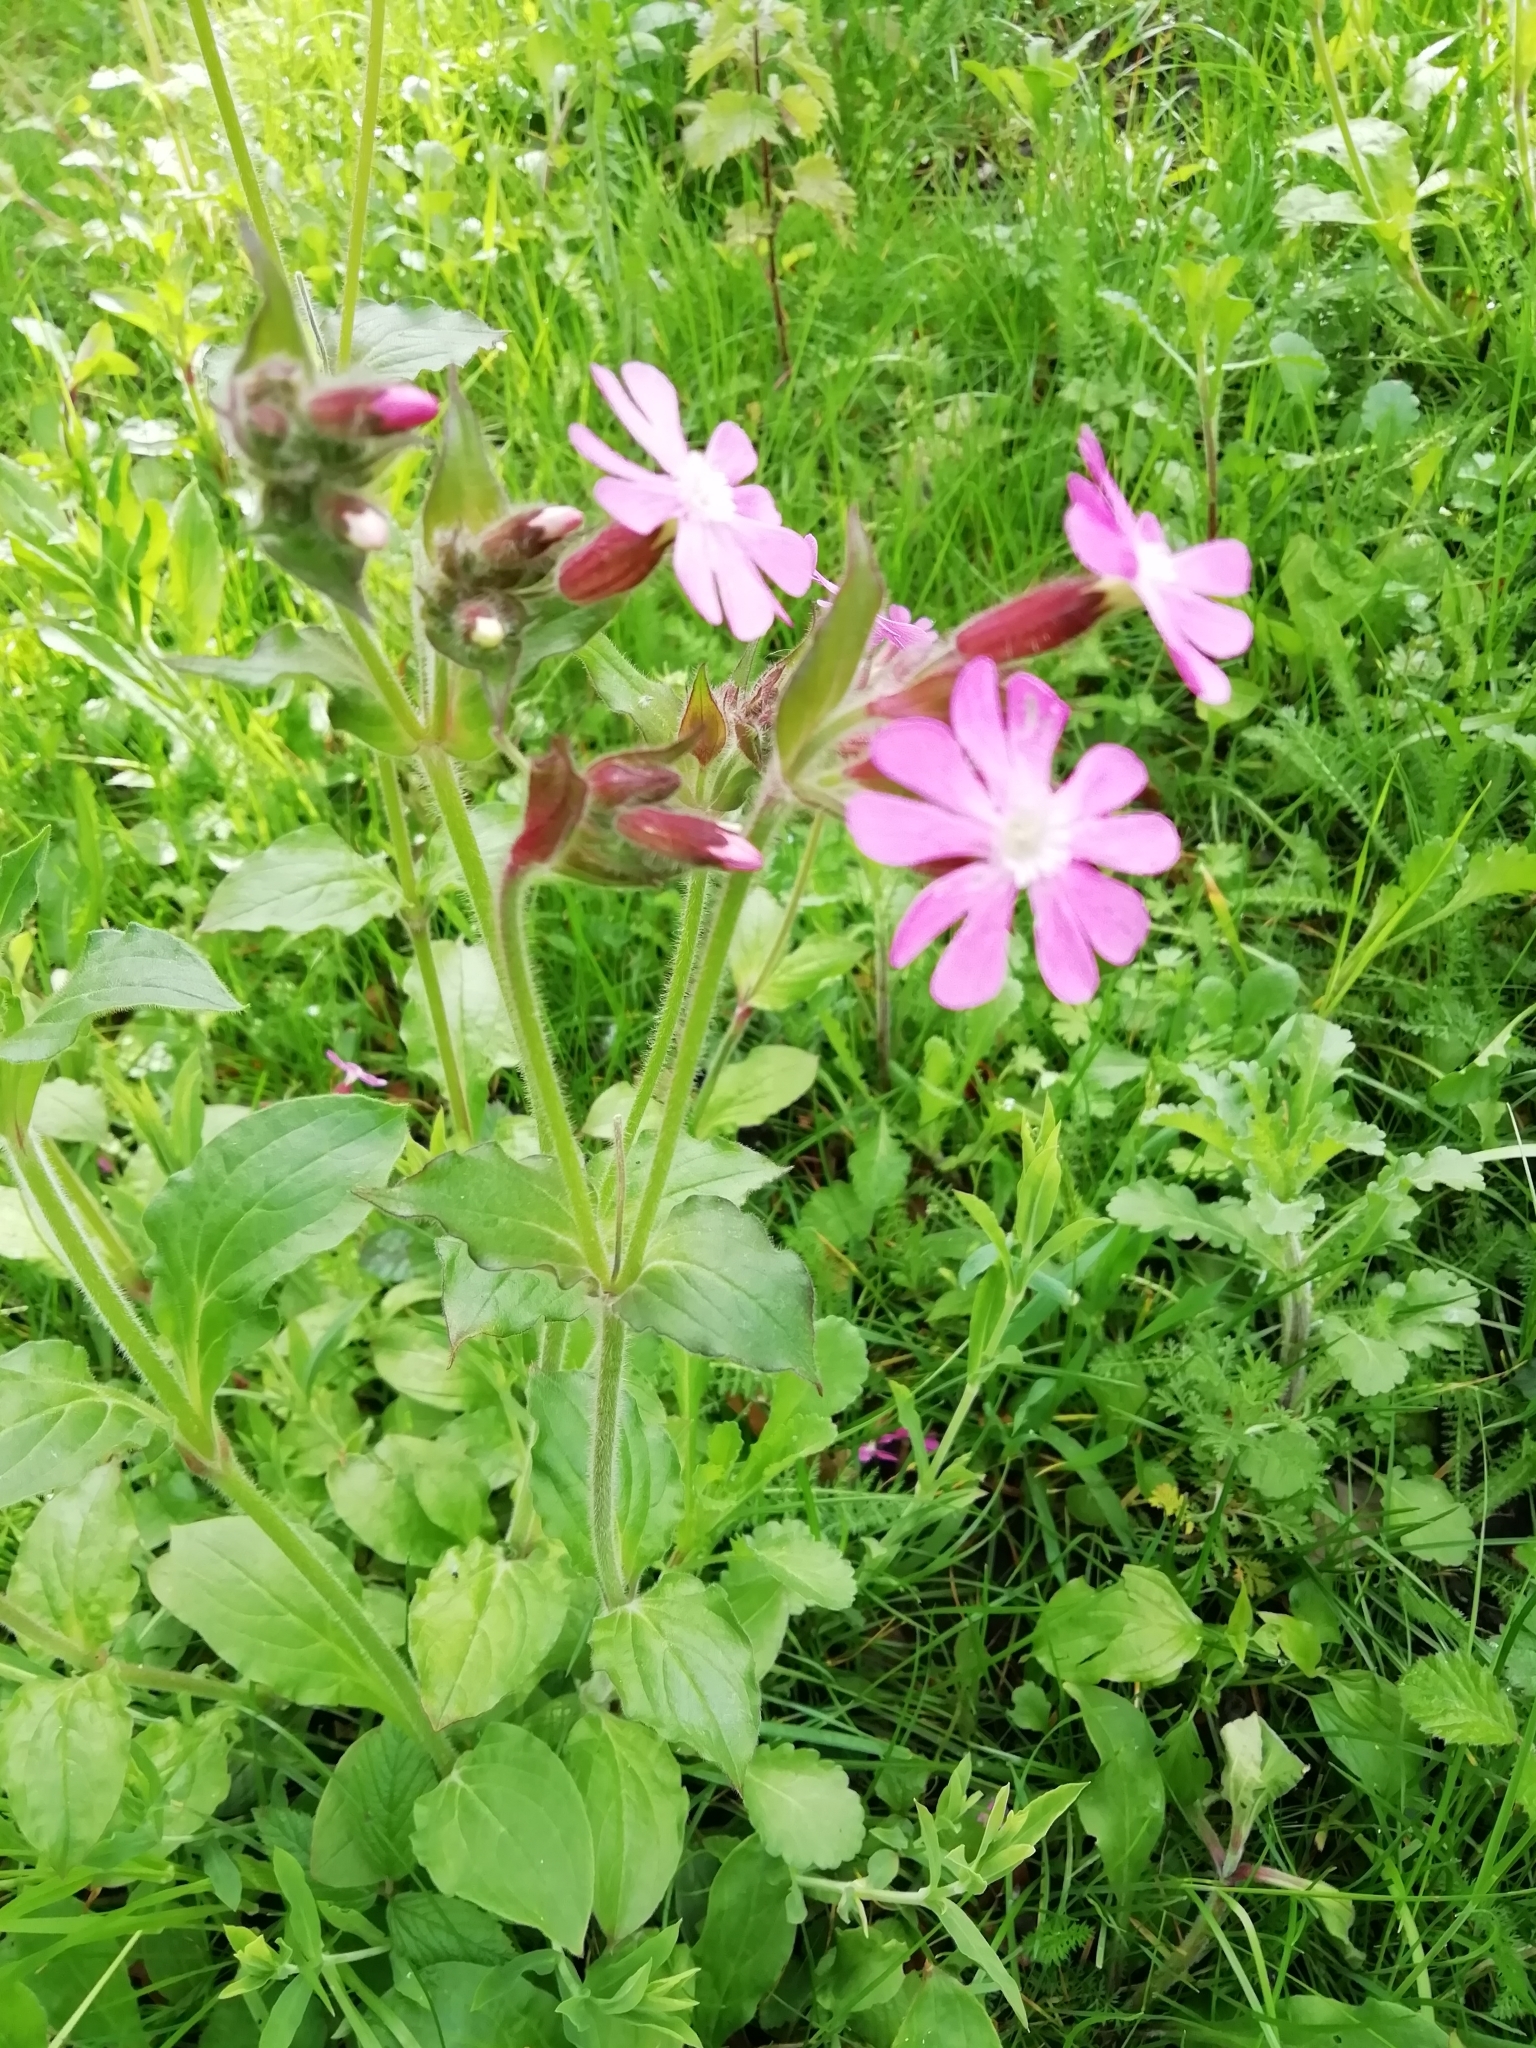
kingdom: Plantae
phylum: Tracheophyta
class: Magnoliopsida
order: Caryophyllales
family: Caryophyllaceae
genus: Silene
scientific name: Silene dioica
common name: Red campion
